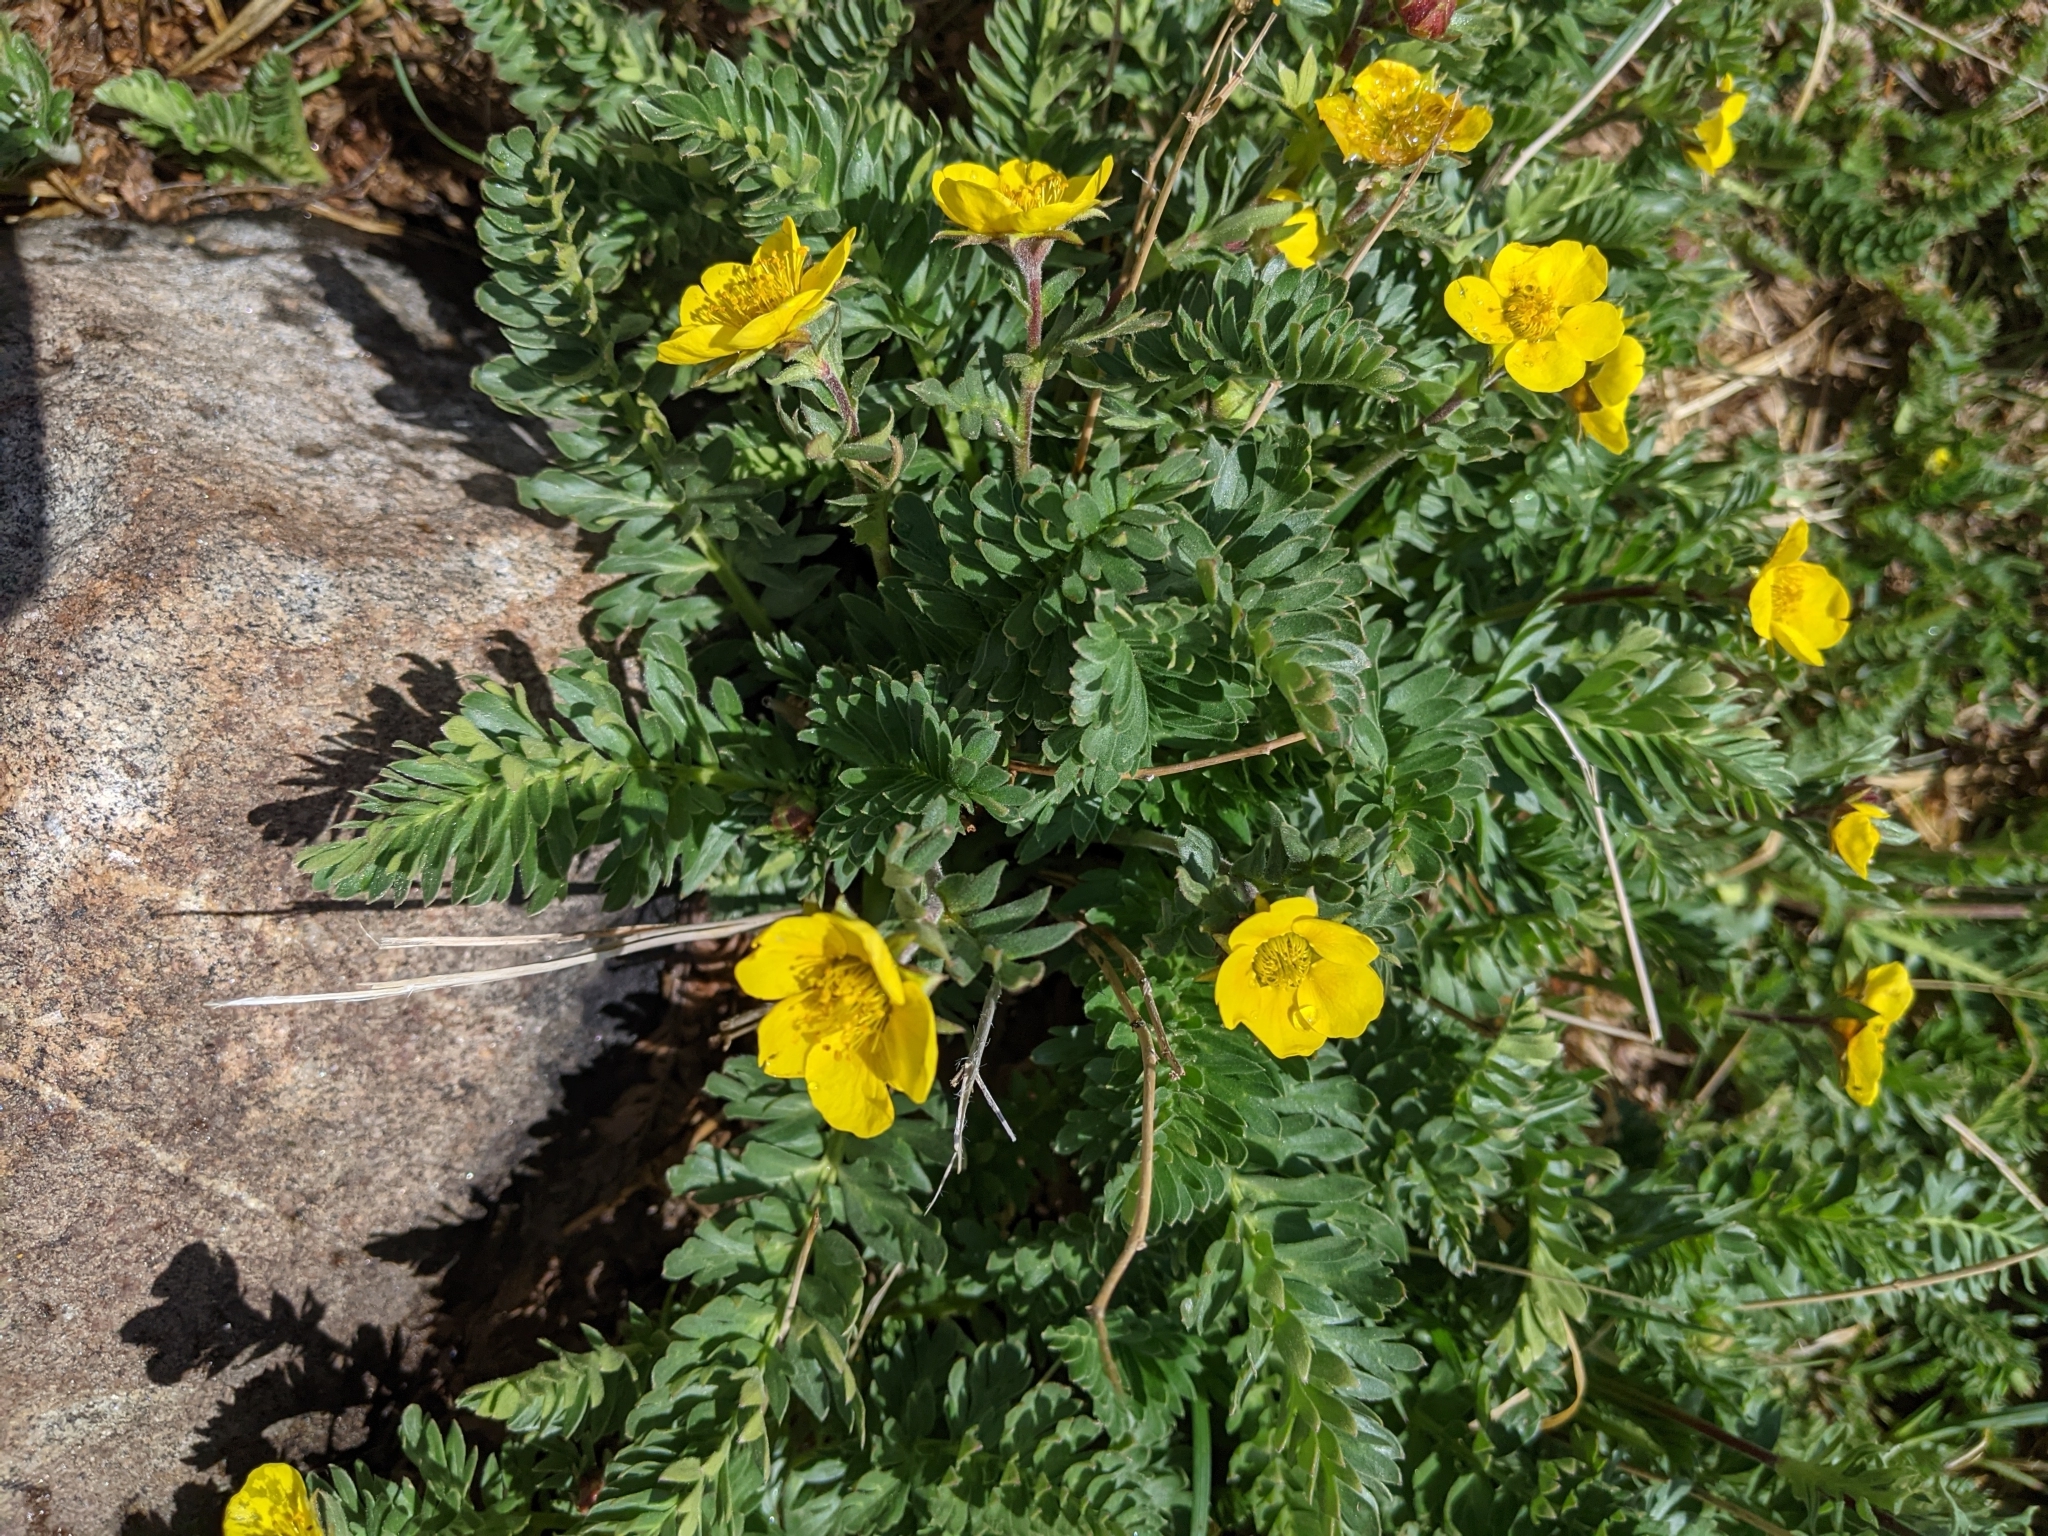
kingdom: Plantae
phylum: Tracheophyta
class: Magnoliopsida
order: Rosales
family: Rosaceae
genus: Geum
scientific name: Geum rossii
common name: Alpine avens
